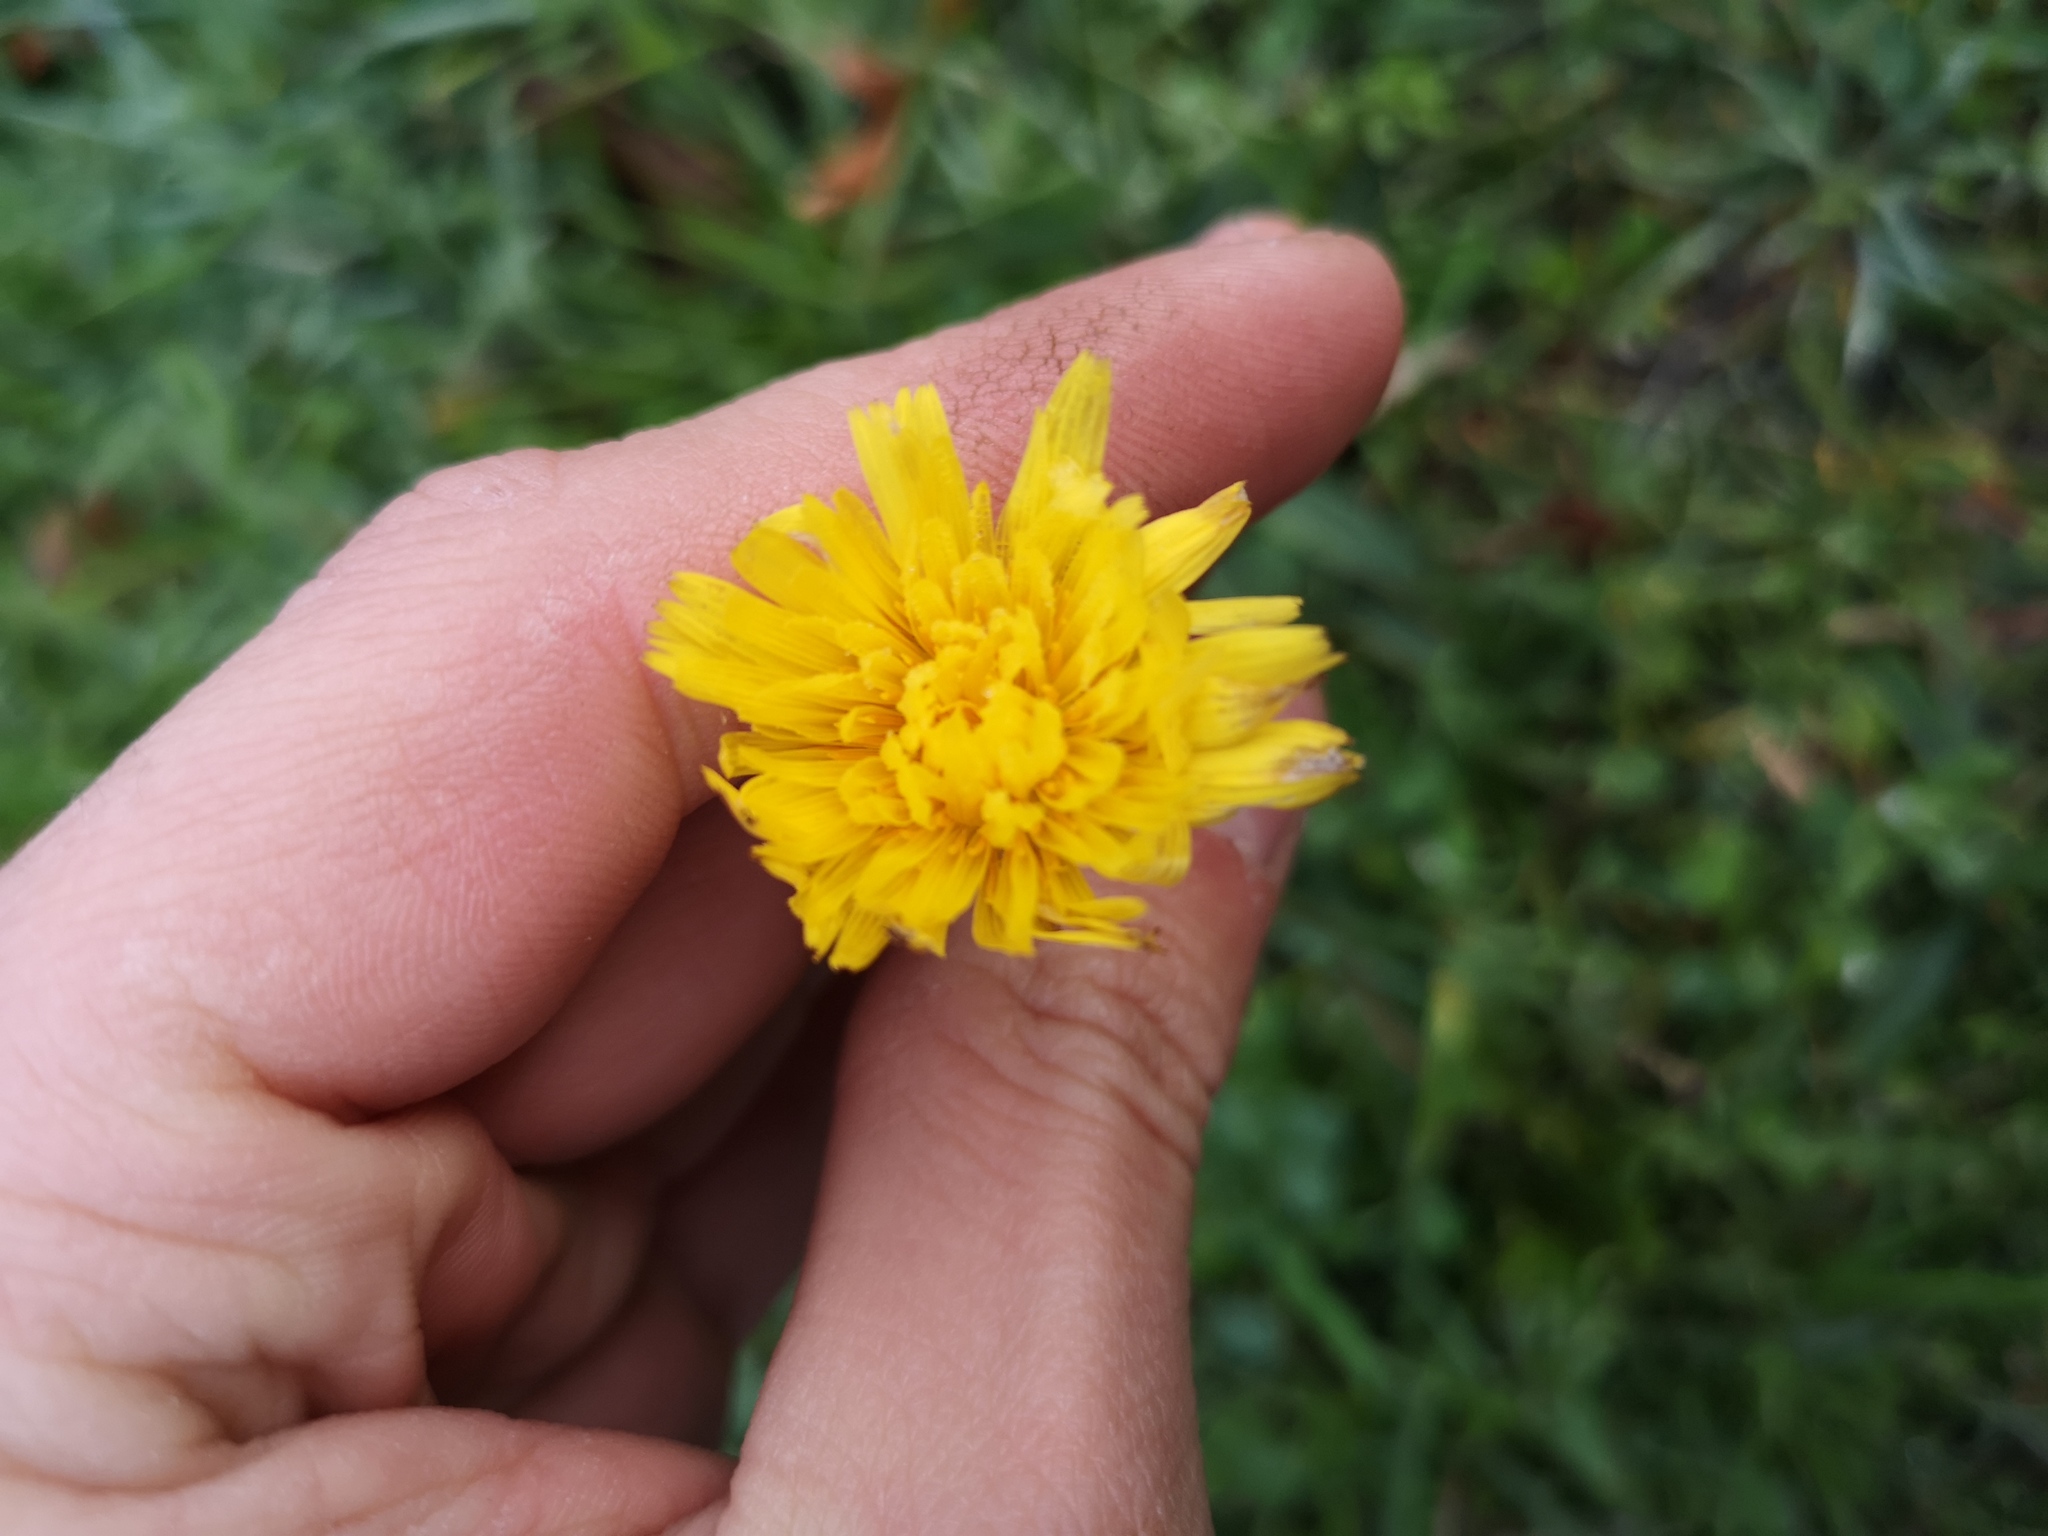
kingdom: Plantae
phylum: Tracheophyta
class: Magnoliopsida
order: Asterales
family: Asteraceae
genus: Hypochaeris
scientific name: Hypochaeris radicata
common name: Flatweed
